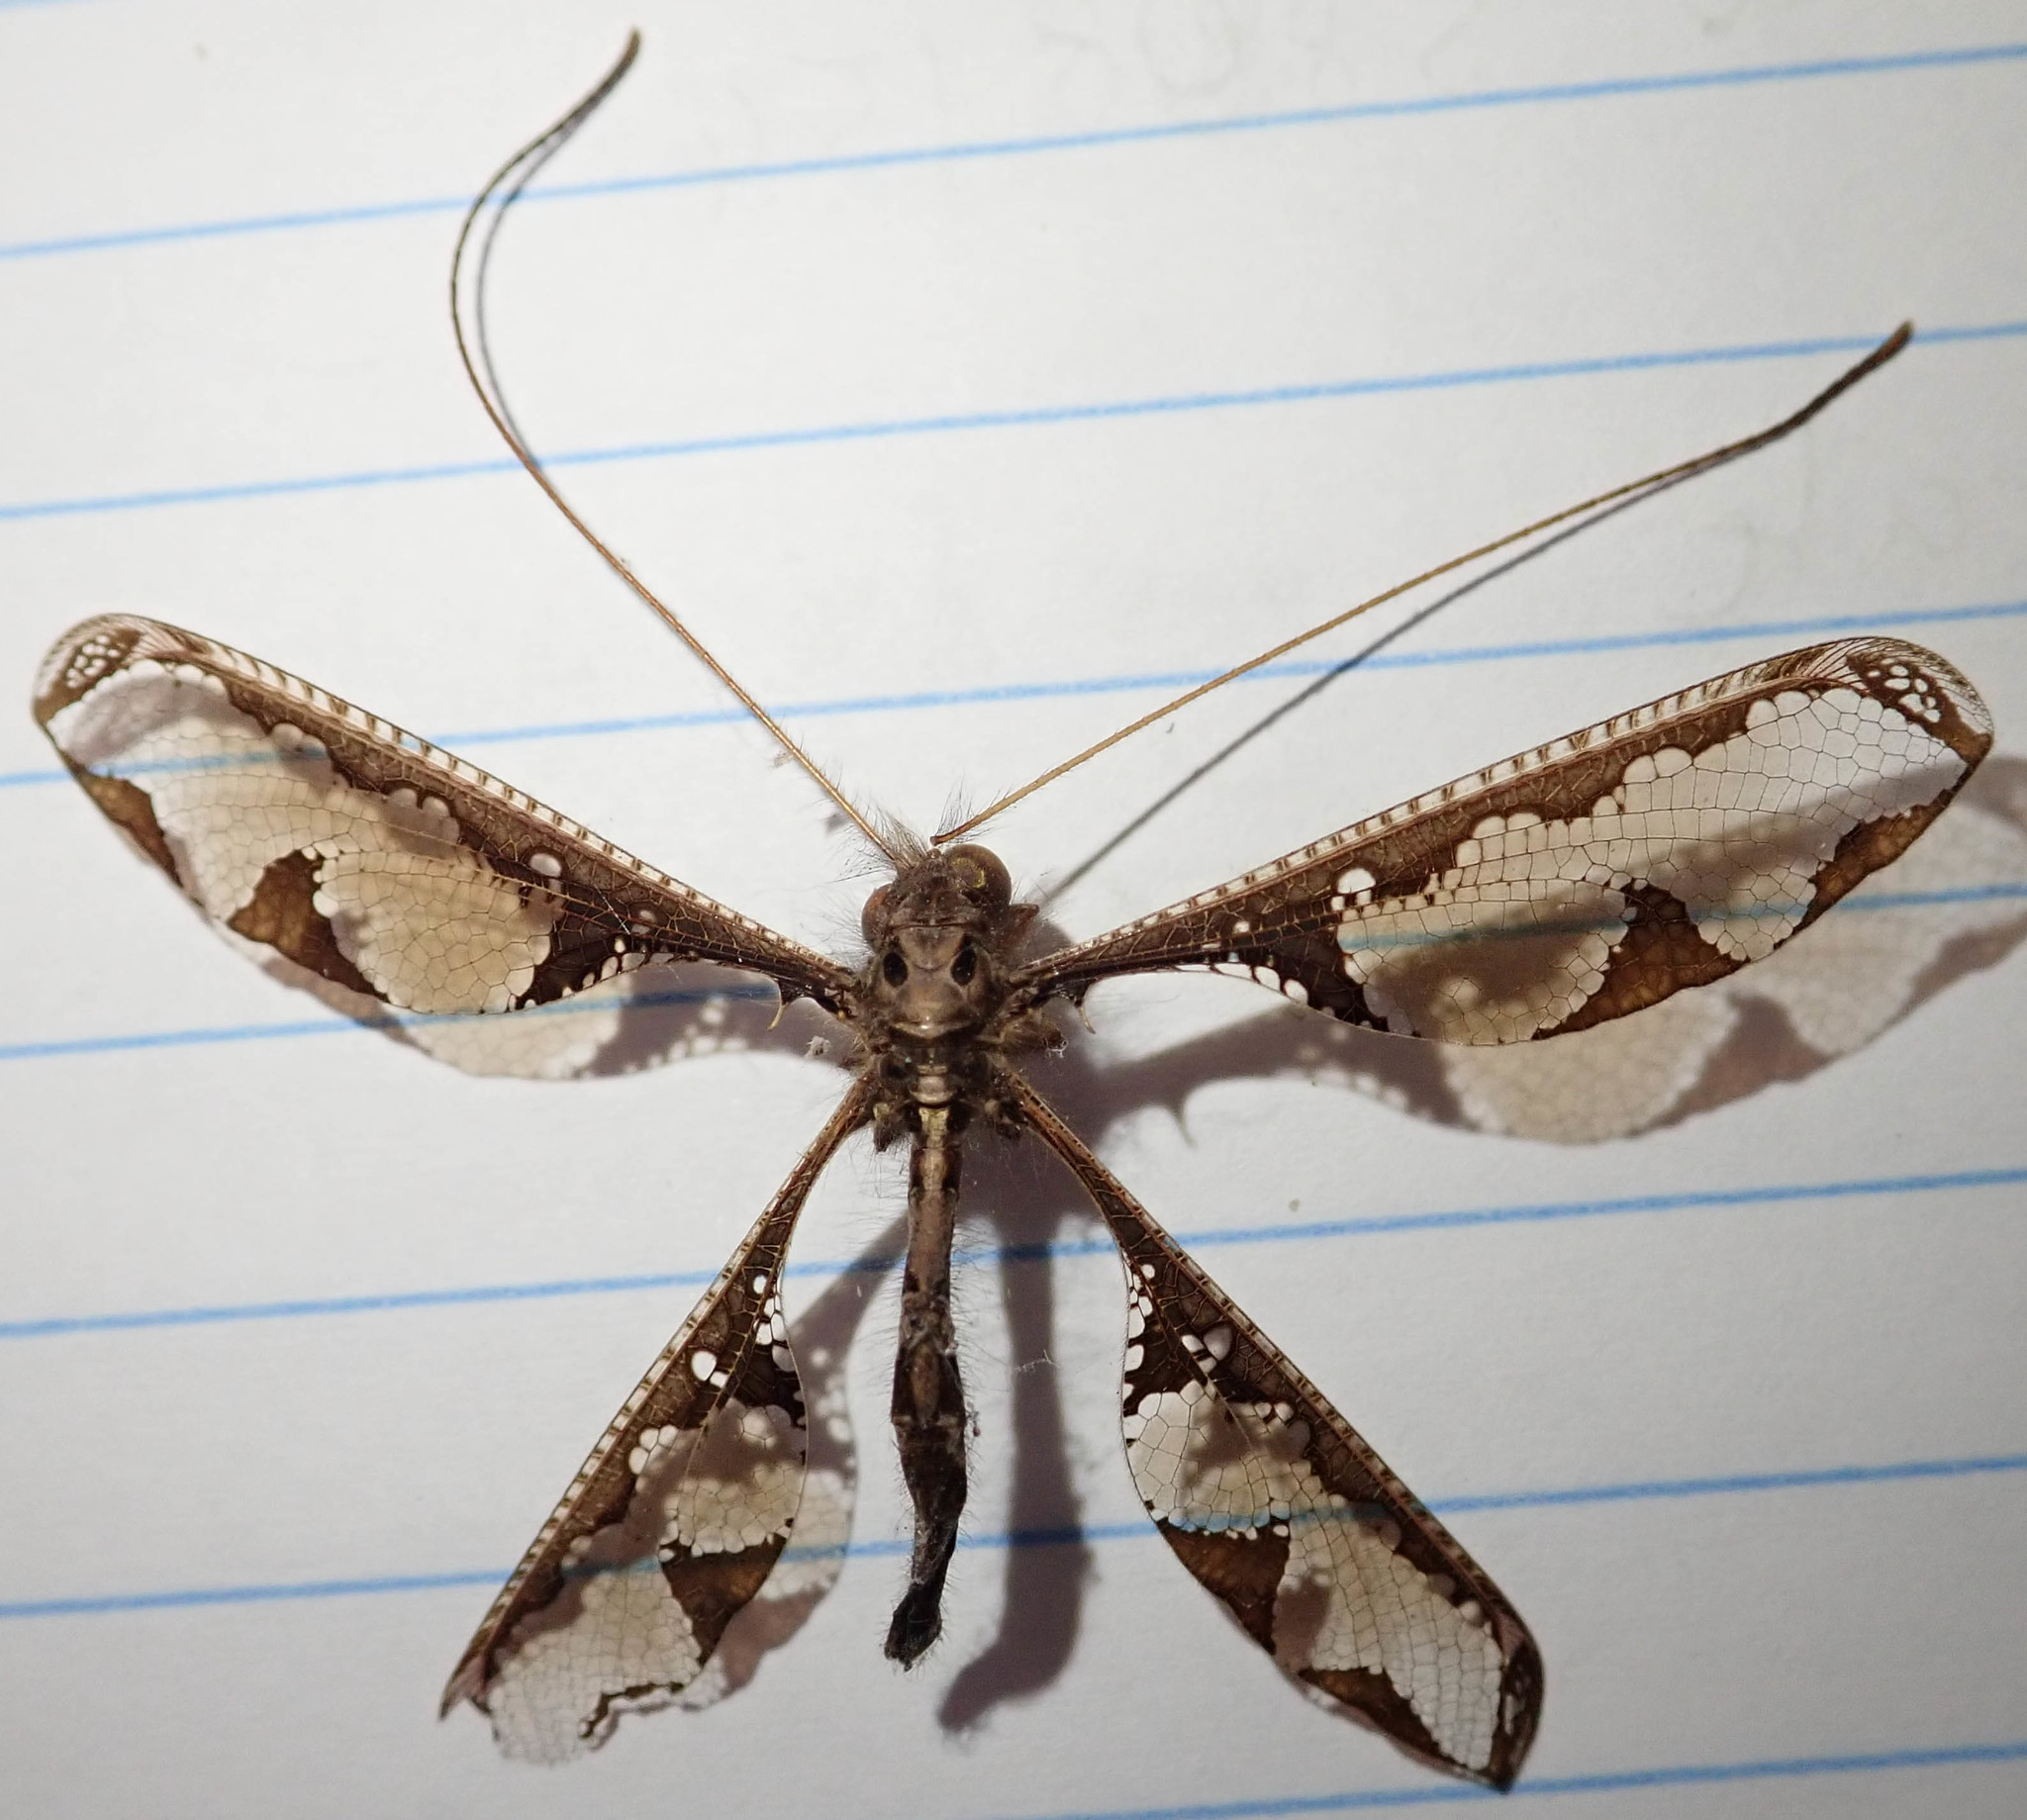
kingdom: Animalia
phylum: Arthropoda
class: Insecta
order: Neuroptera
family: Ascalaphidae
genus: Tmesibasis
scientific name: Tmesibasis lacerata
